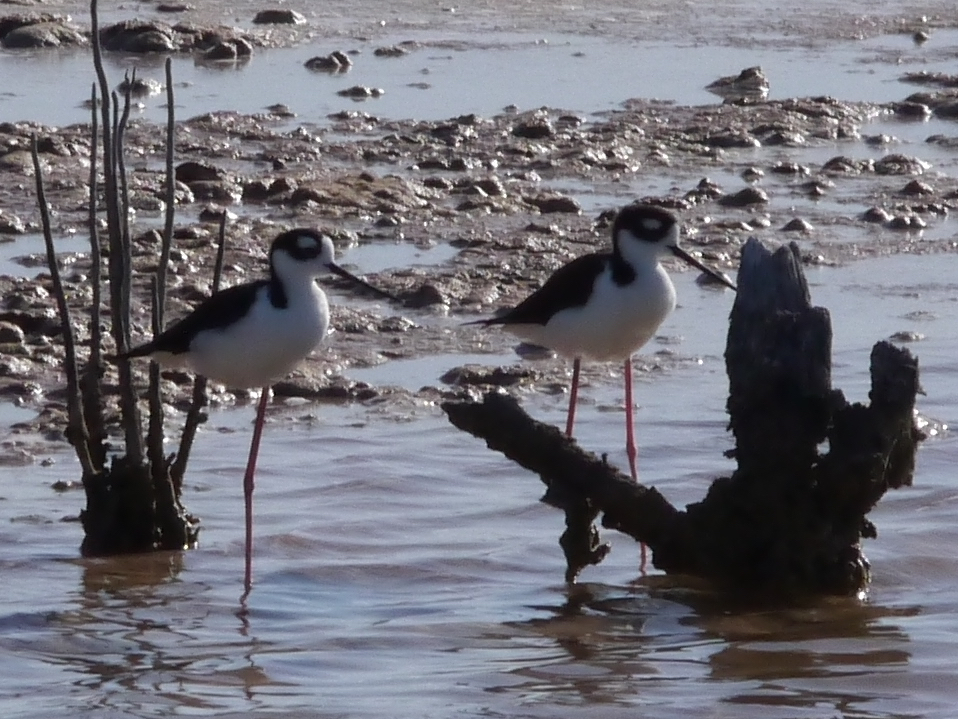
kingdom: Animalia
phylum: Chordata
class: Aves
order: Charadriiformes
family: Recurvirostridae
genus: Himantopus
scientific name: Himantopus mexicanus
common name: Black-necked stilt
